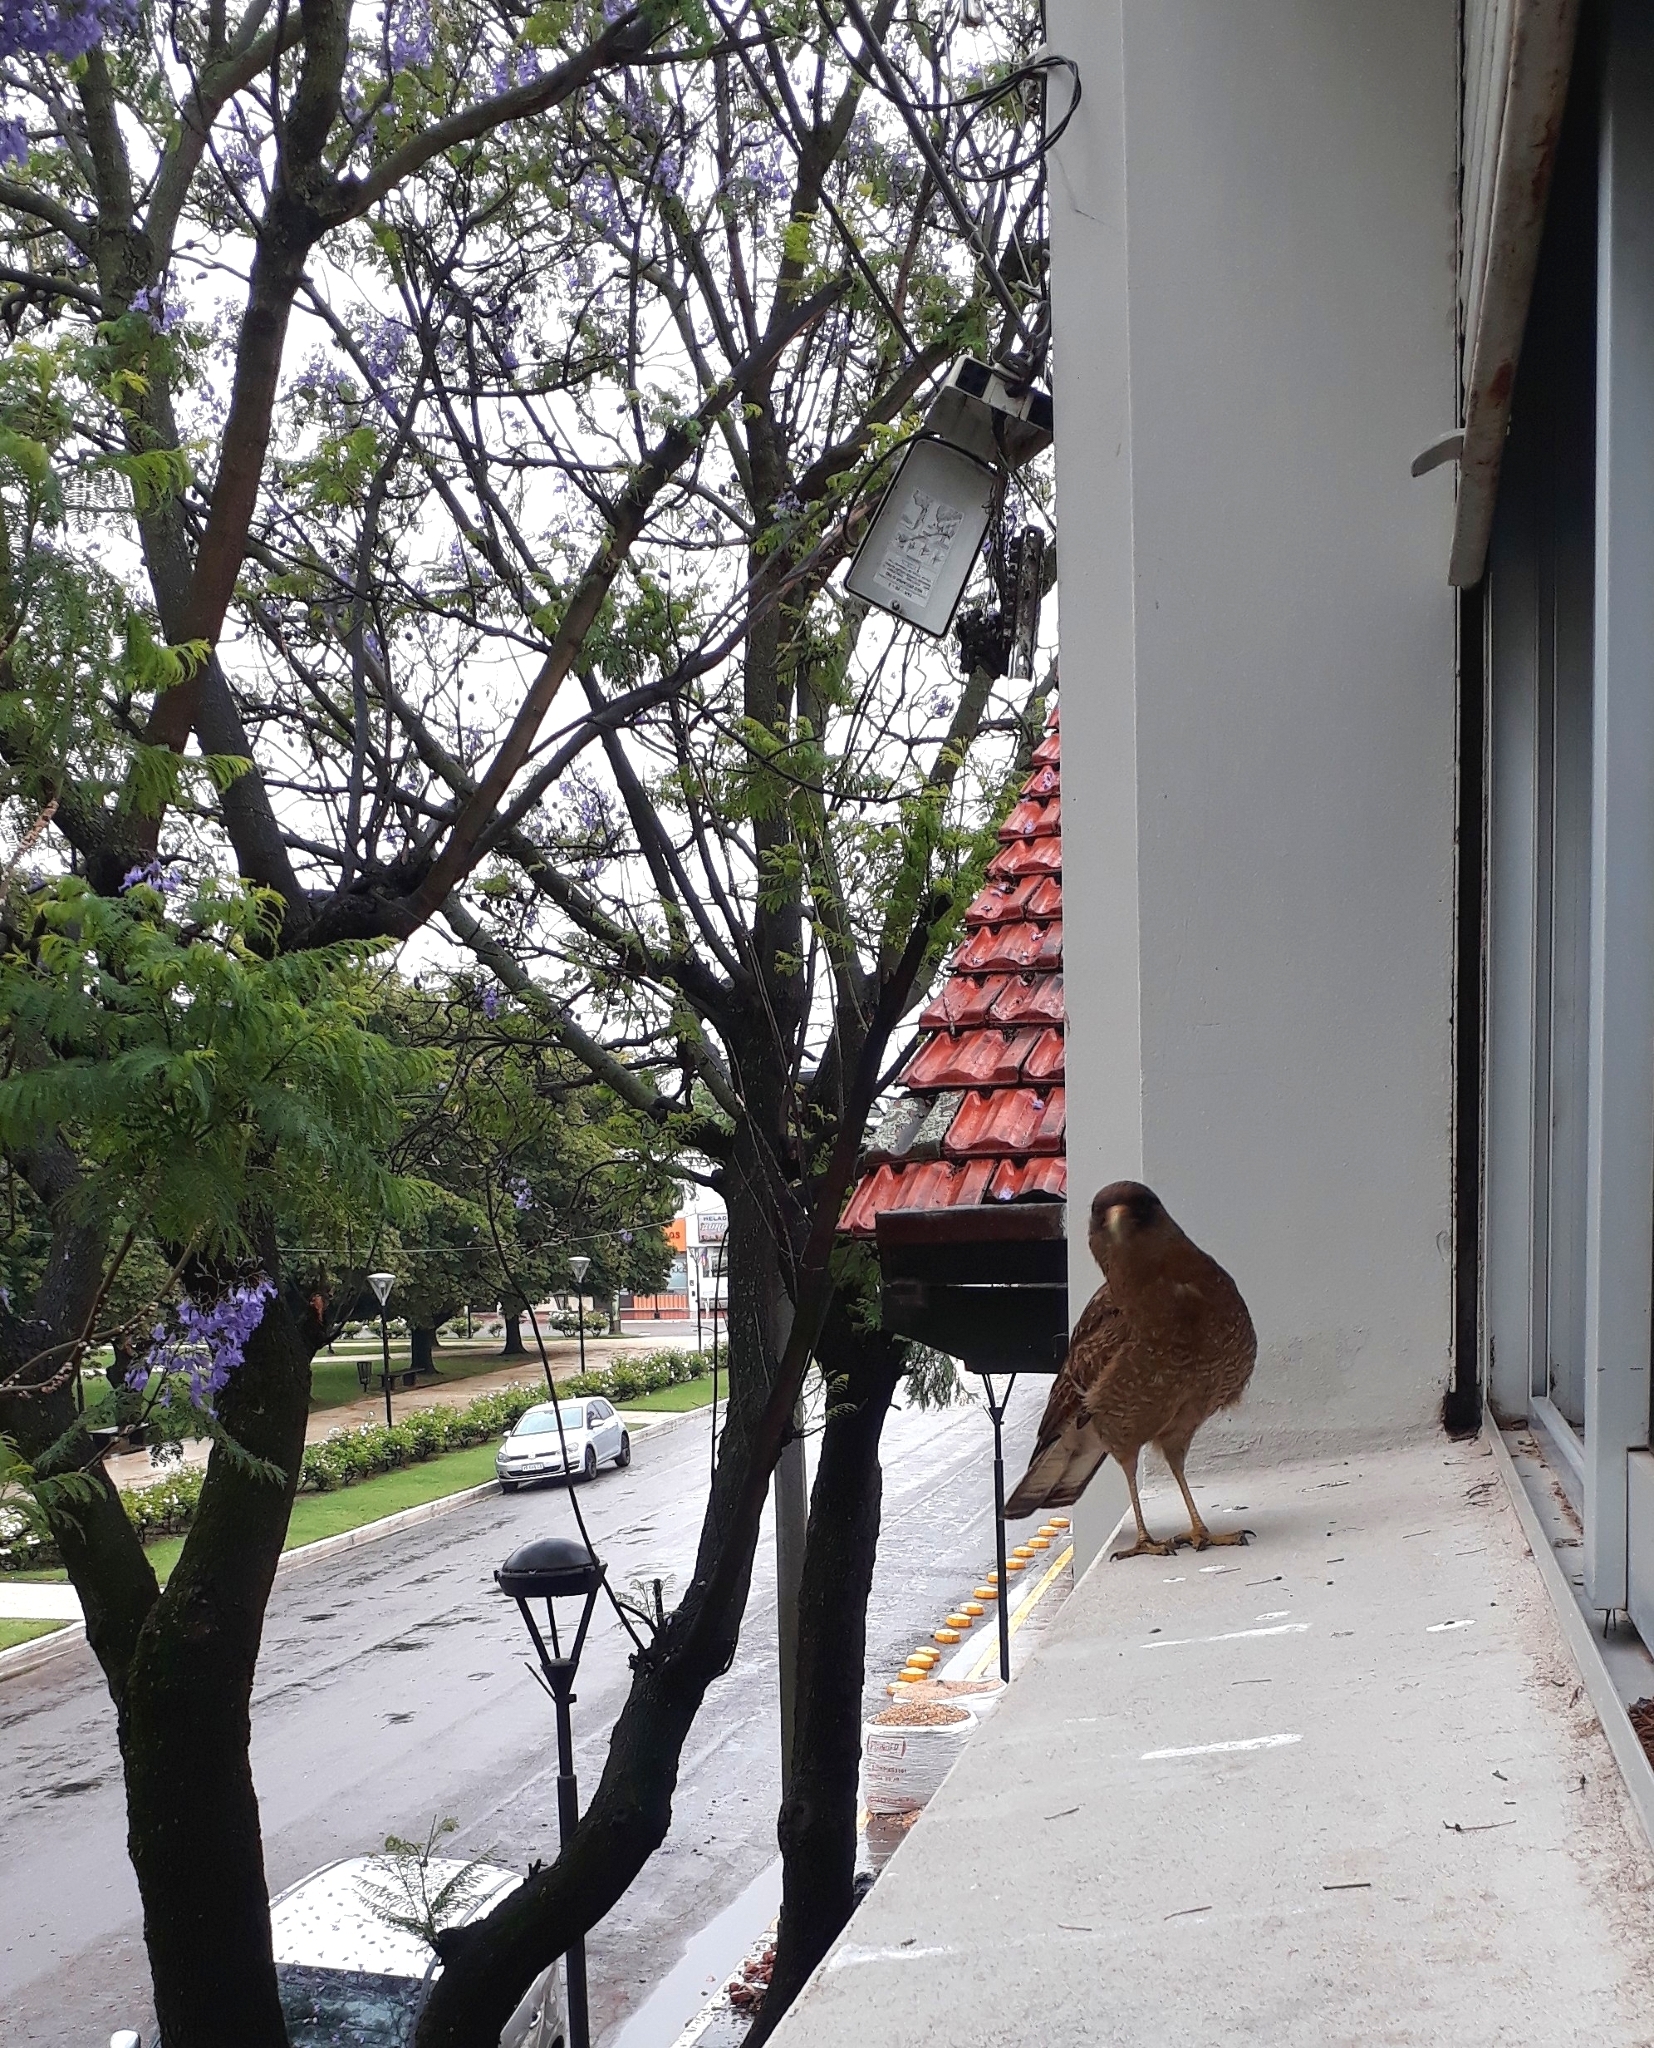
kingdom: Animalia
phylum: Chordata
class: Aves
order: Falconiformes
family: Falconidae
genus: Daptrius
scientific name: Daptrius
